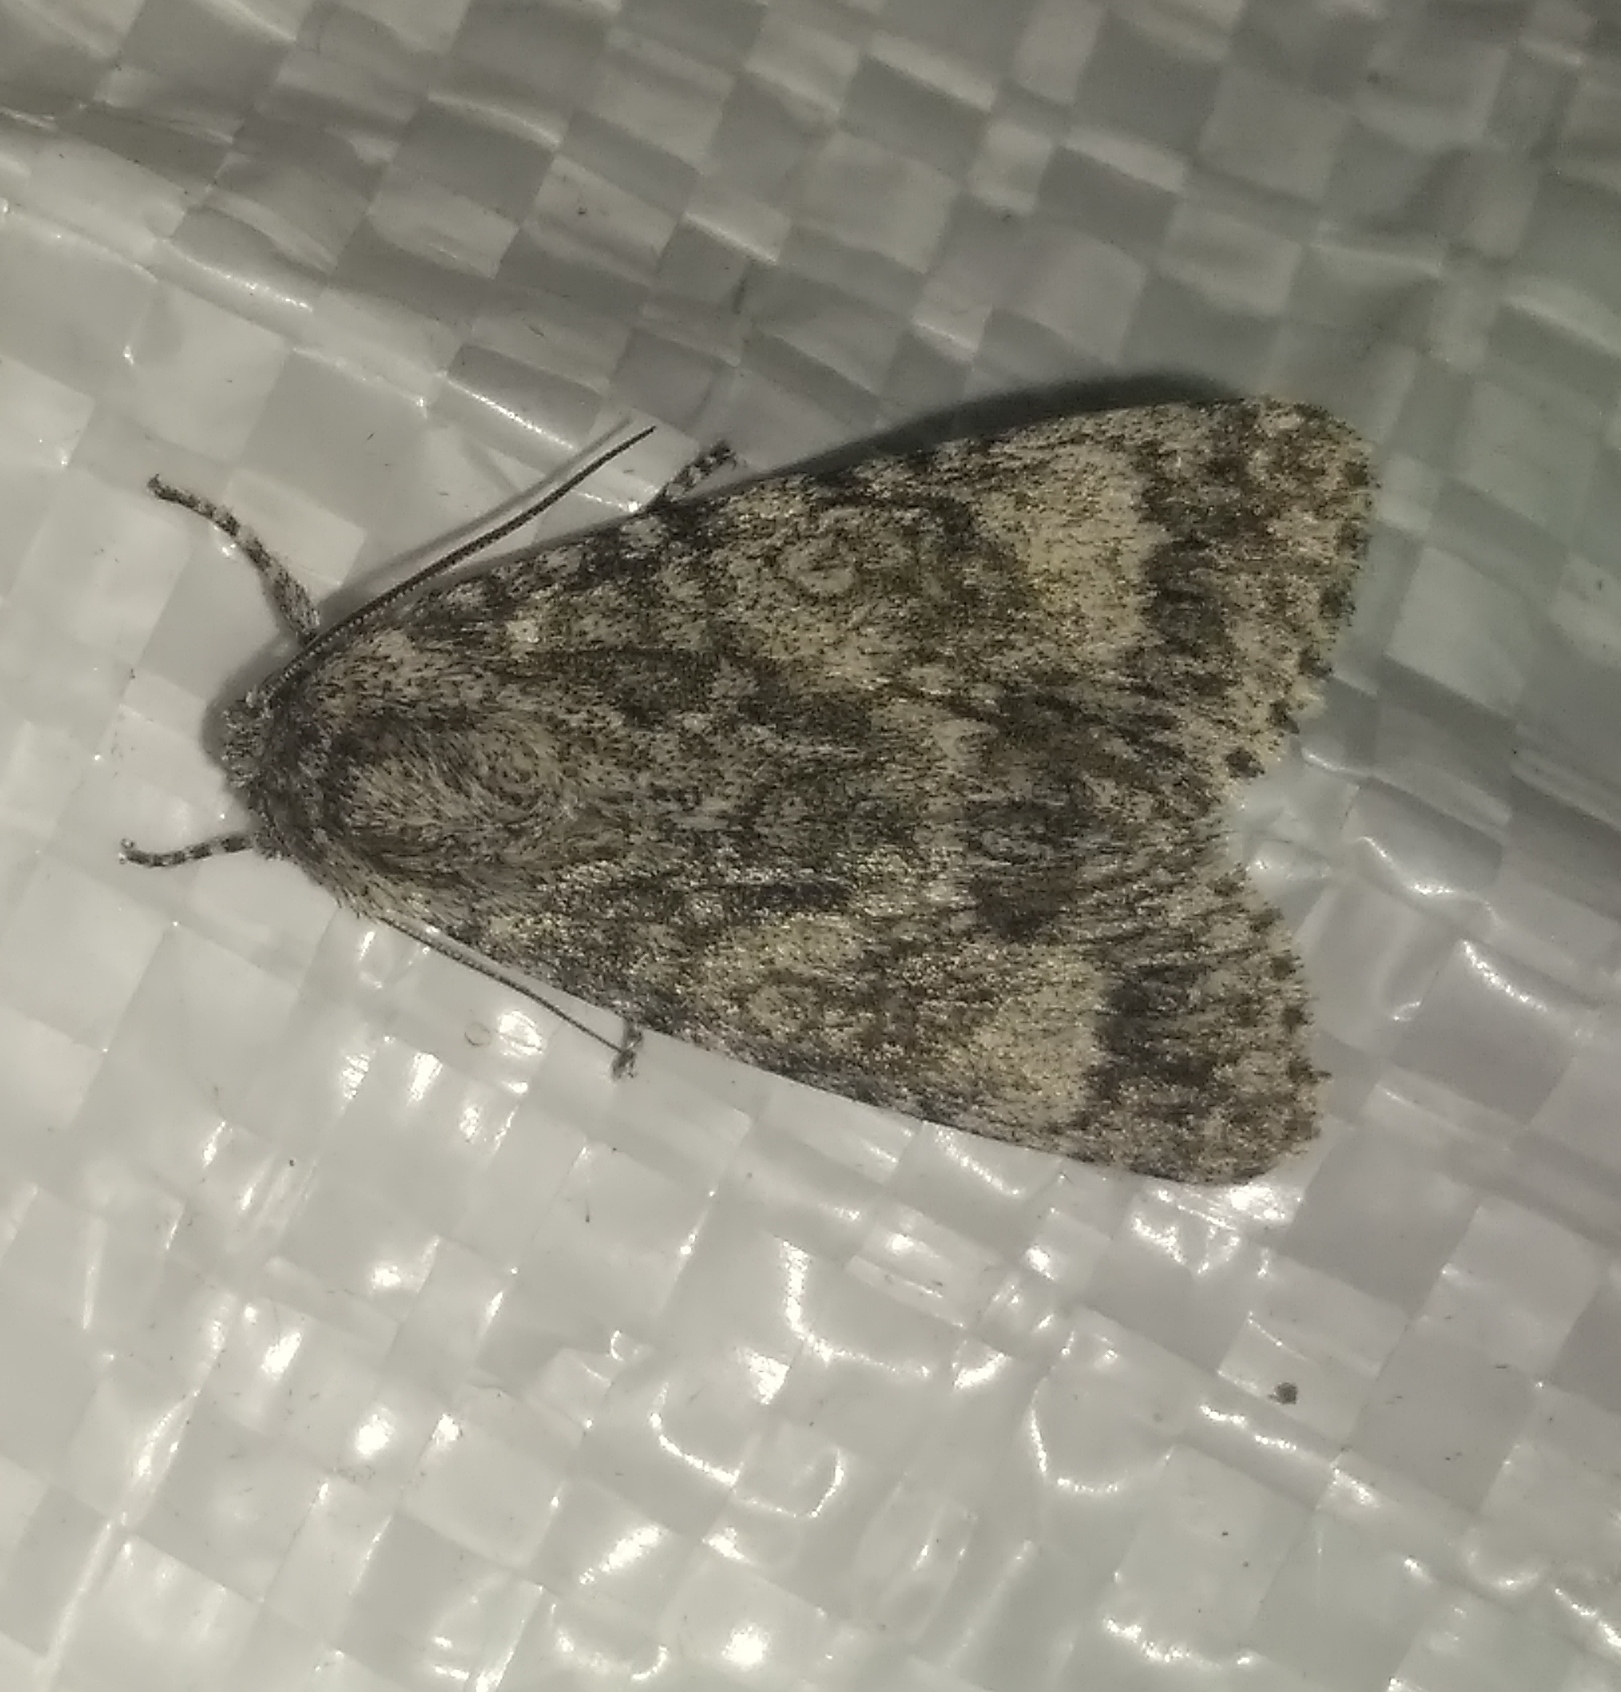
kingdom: Animalia
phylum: Arthropoda
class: Insecta
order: Lepidoptera
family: Noctuidae
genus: Acronicta
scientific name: Acronicta megacephala
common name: Poplar grey
